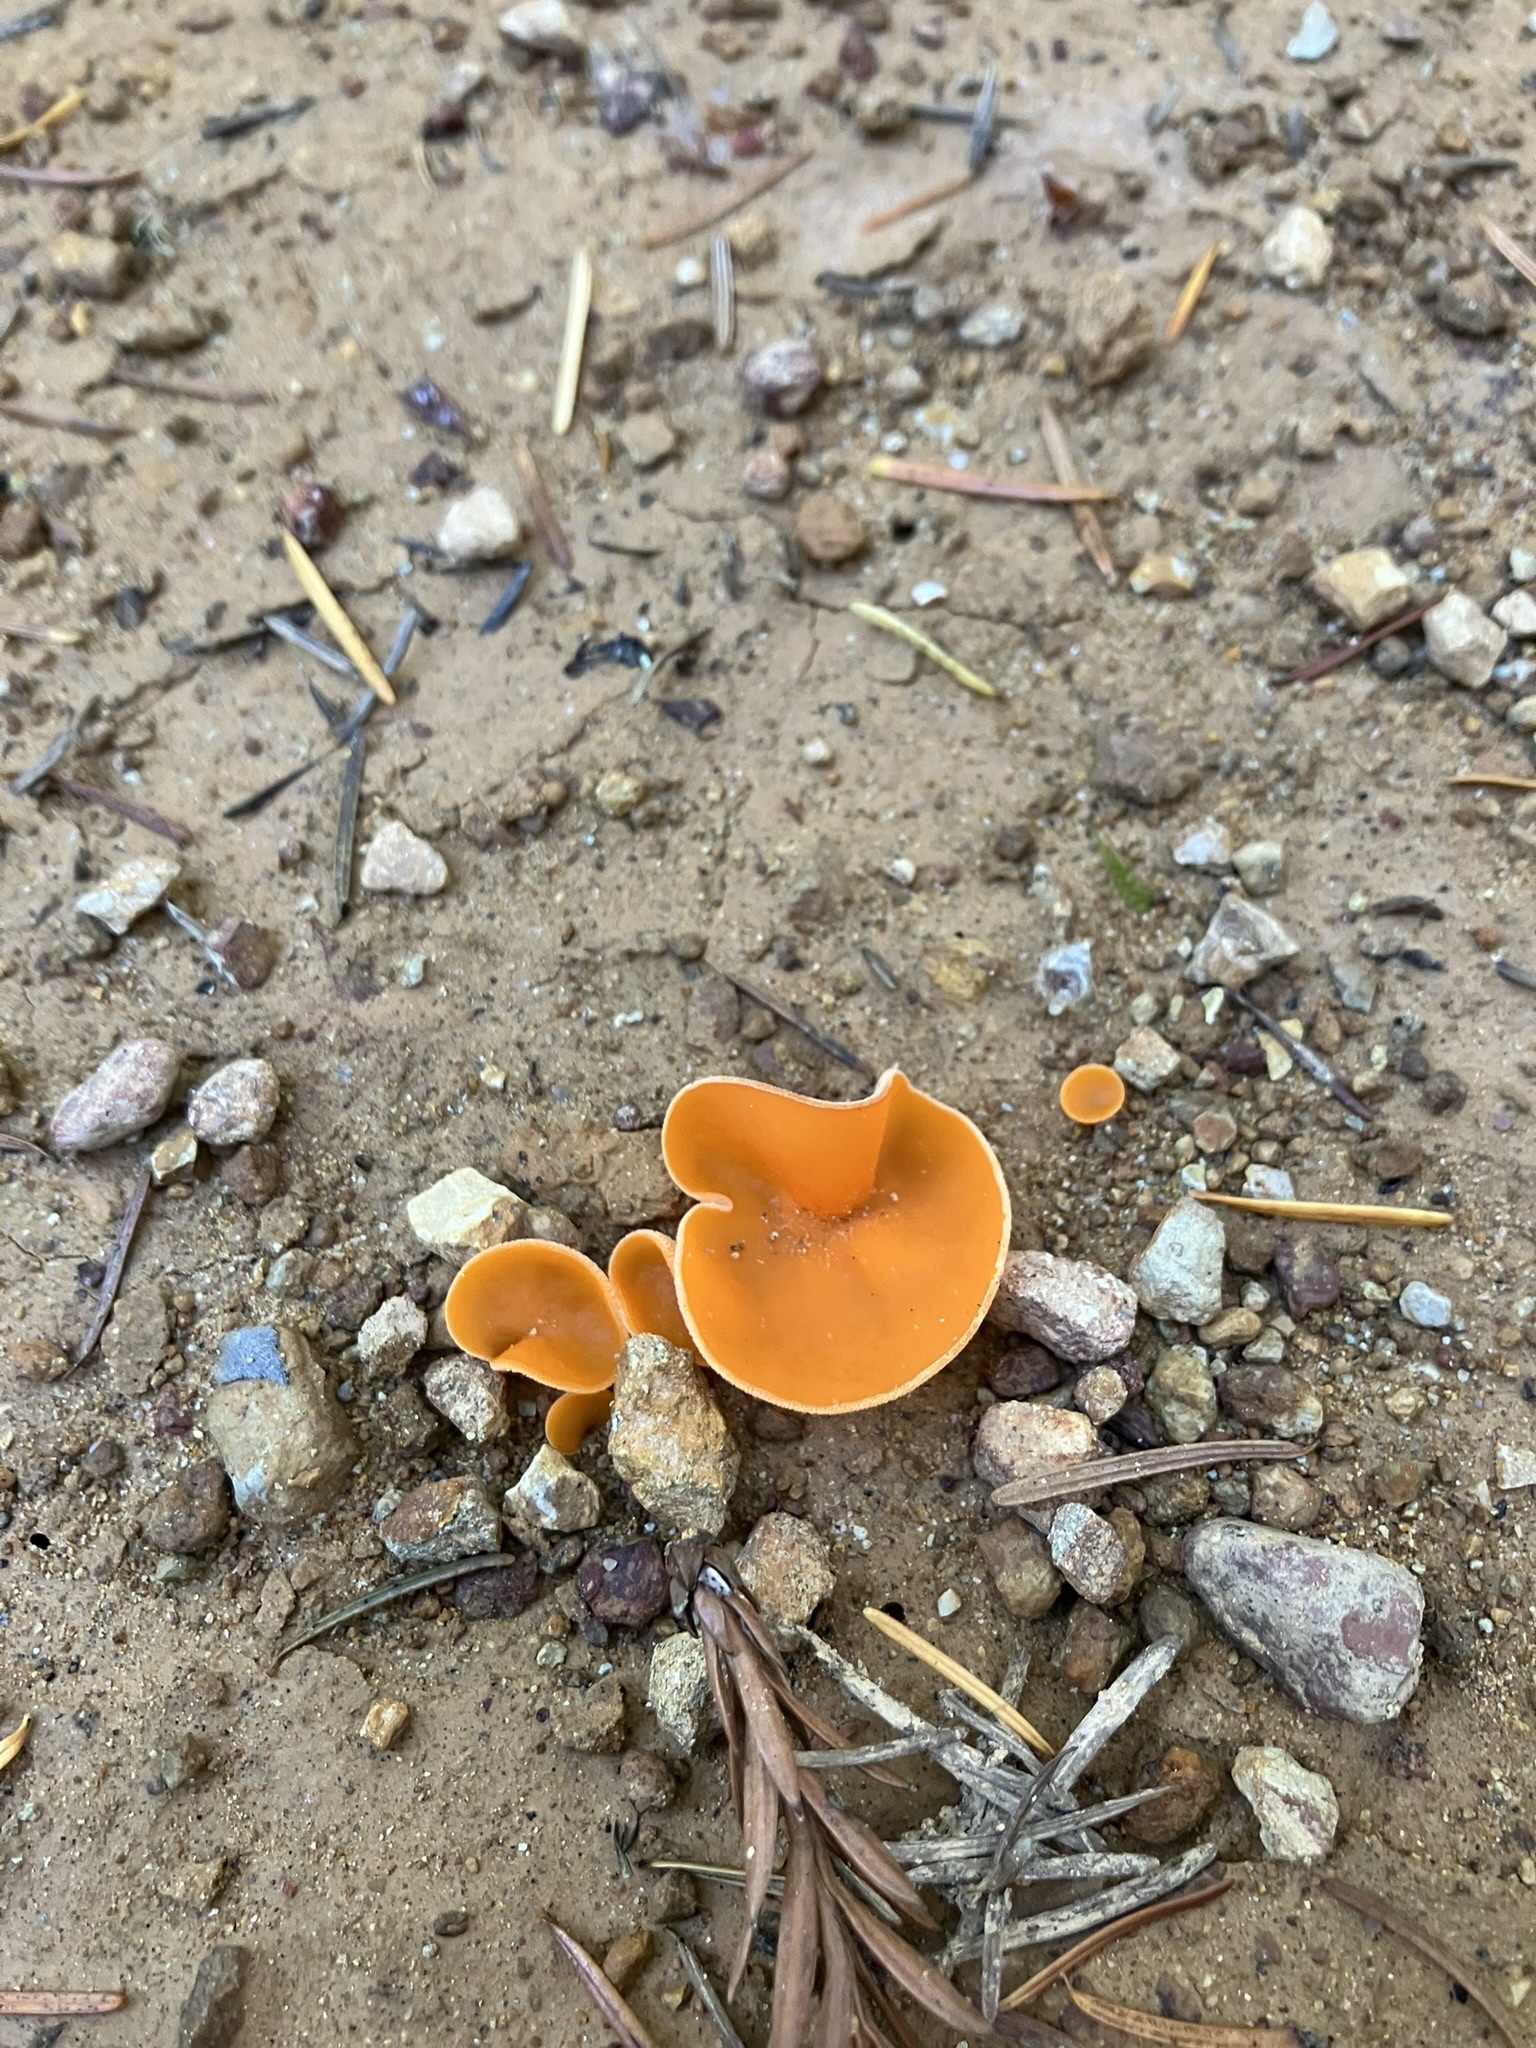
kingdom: Fungi
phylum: Ascomycota
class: Pezizomycetes
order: Pezizales
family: Pyronemataceae
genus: Aleuria
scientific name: Aleuria aurantia
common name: Orange peel fungus
